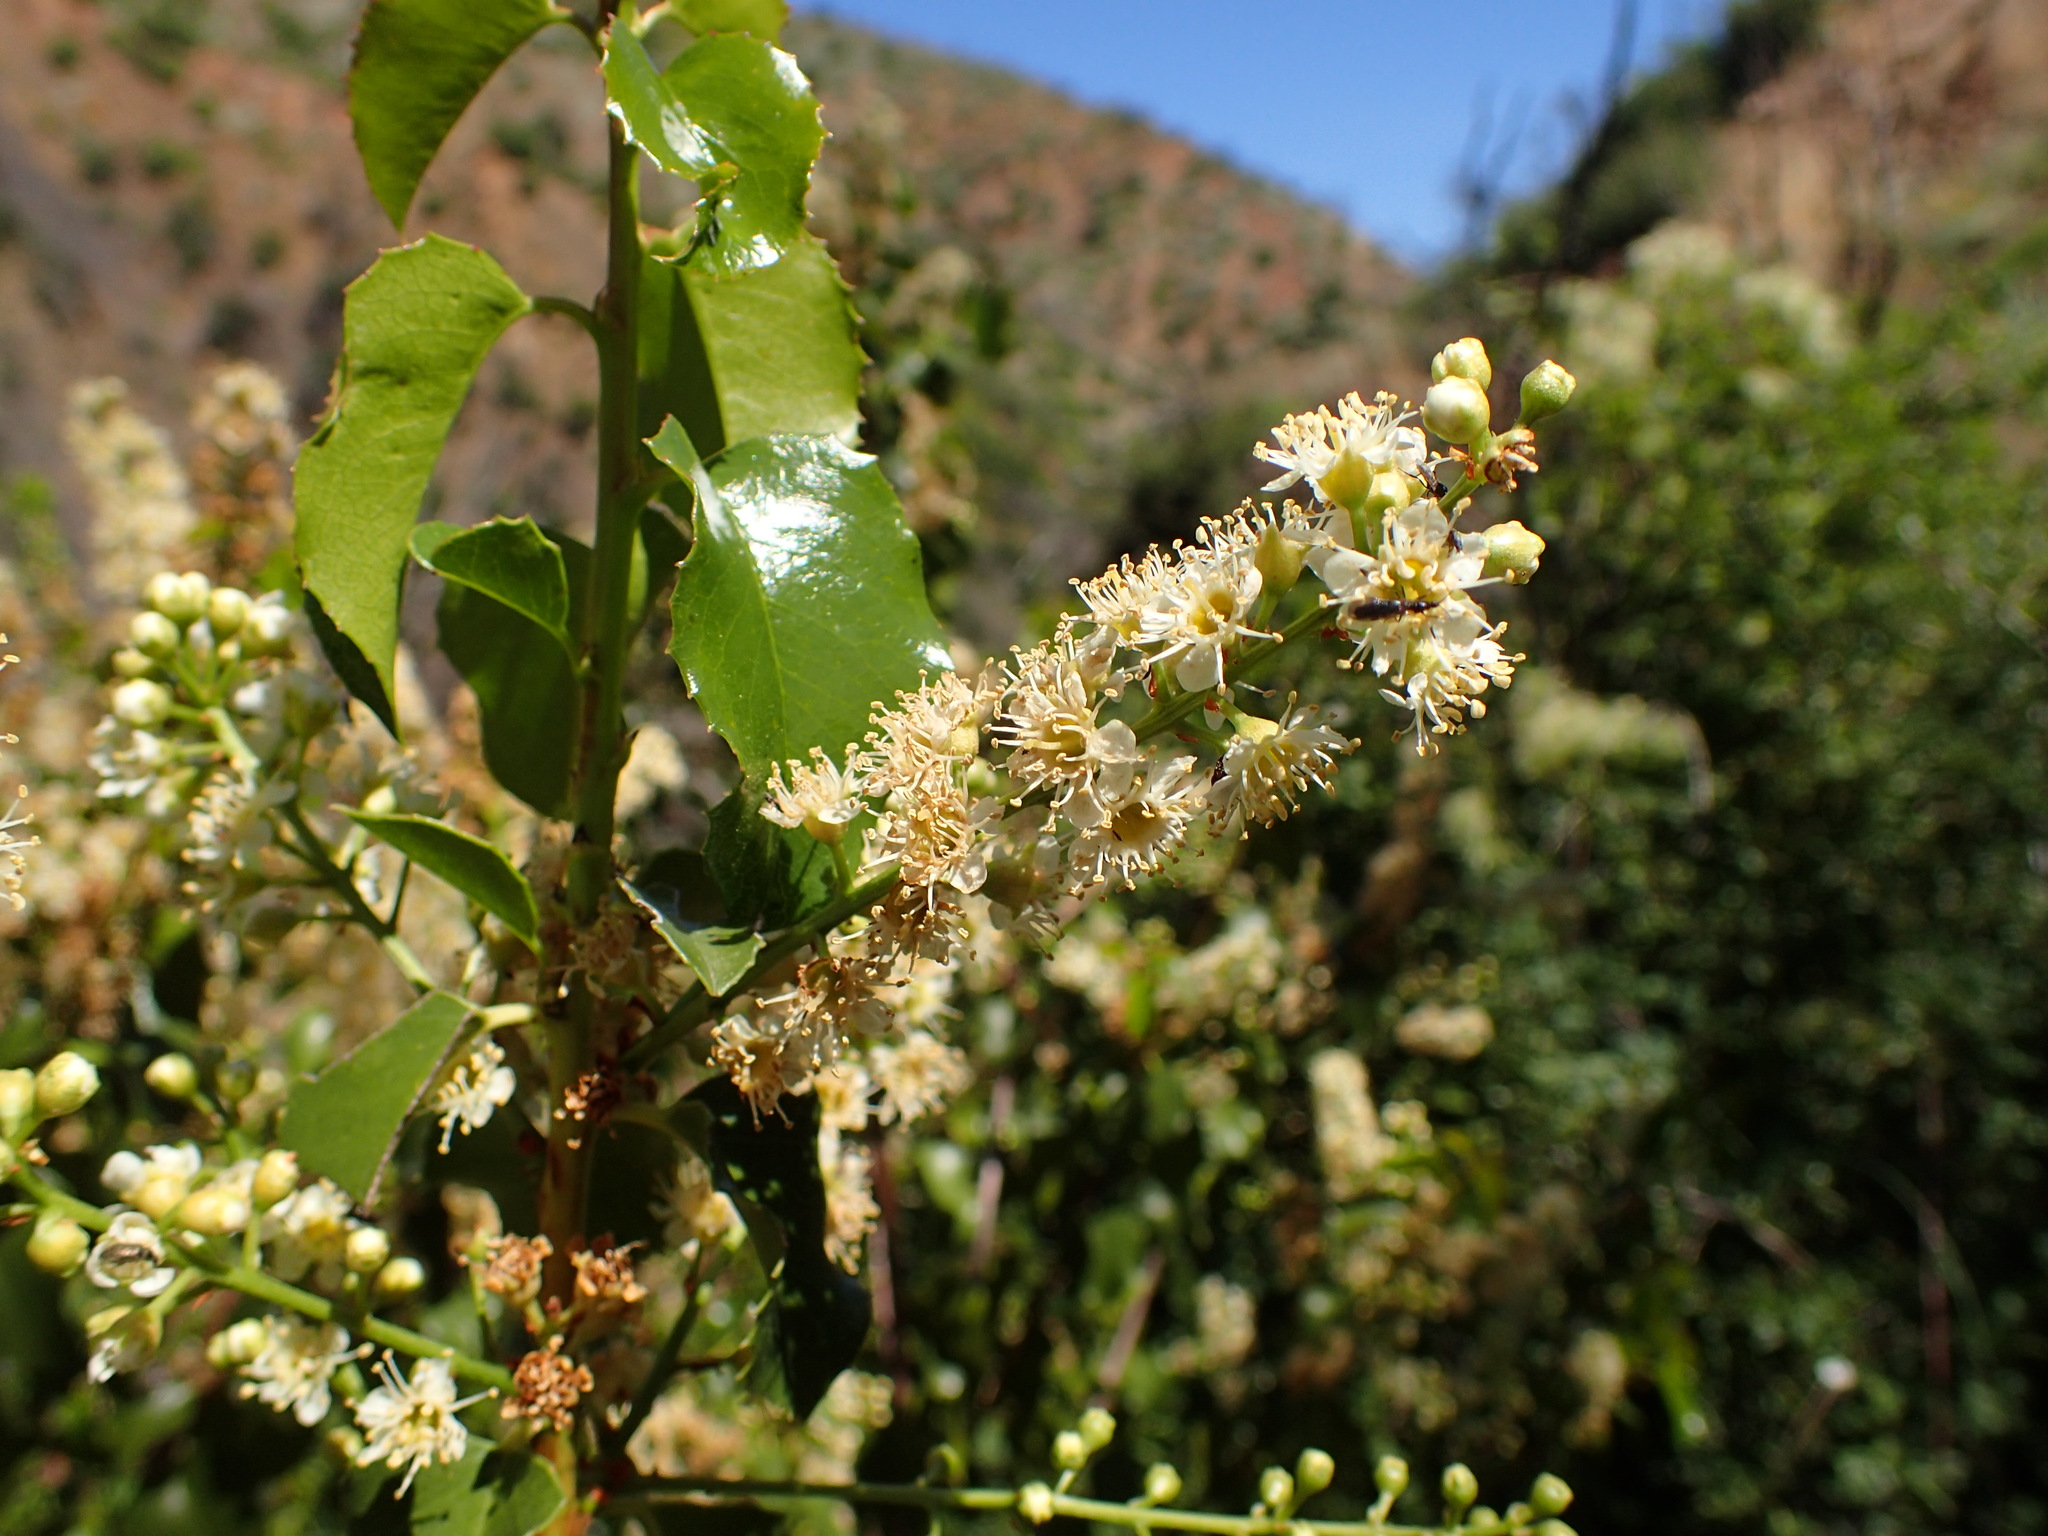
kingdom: Plantae
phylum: Tracheophyta
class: Magnoliopsida
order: Rosales
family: Rosaceae
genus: Prunus
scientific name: Prunus ilicifolia
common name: Hollyleaf cherry
